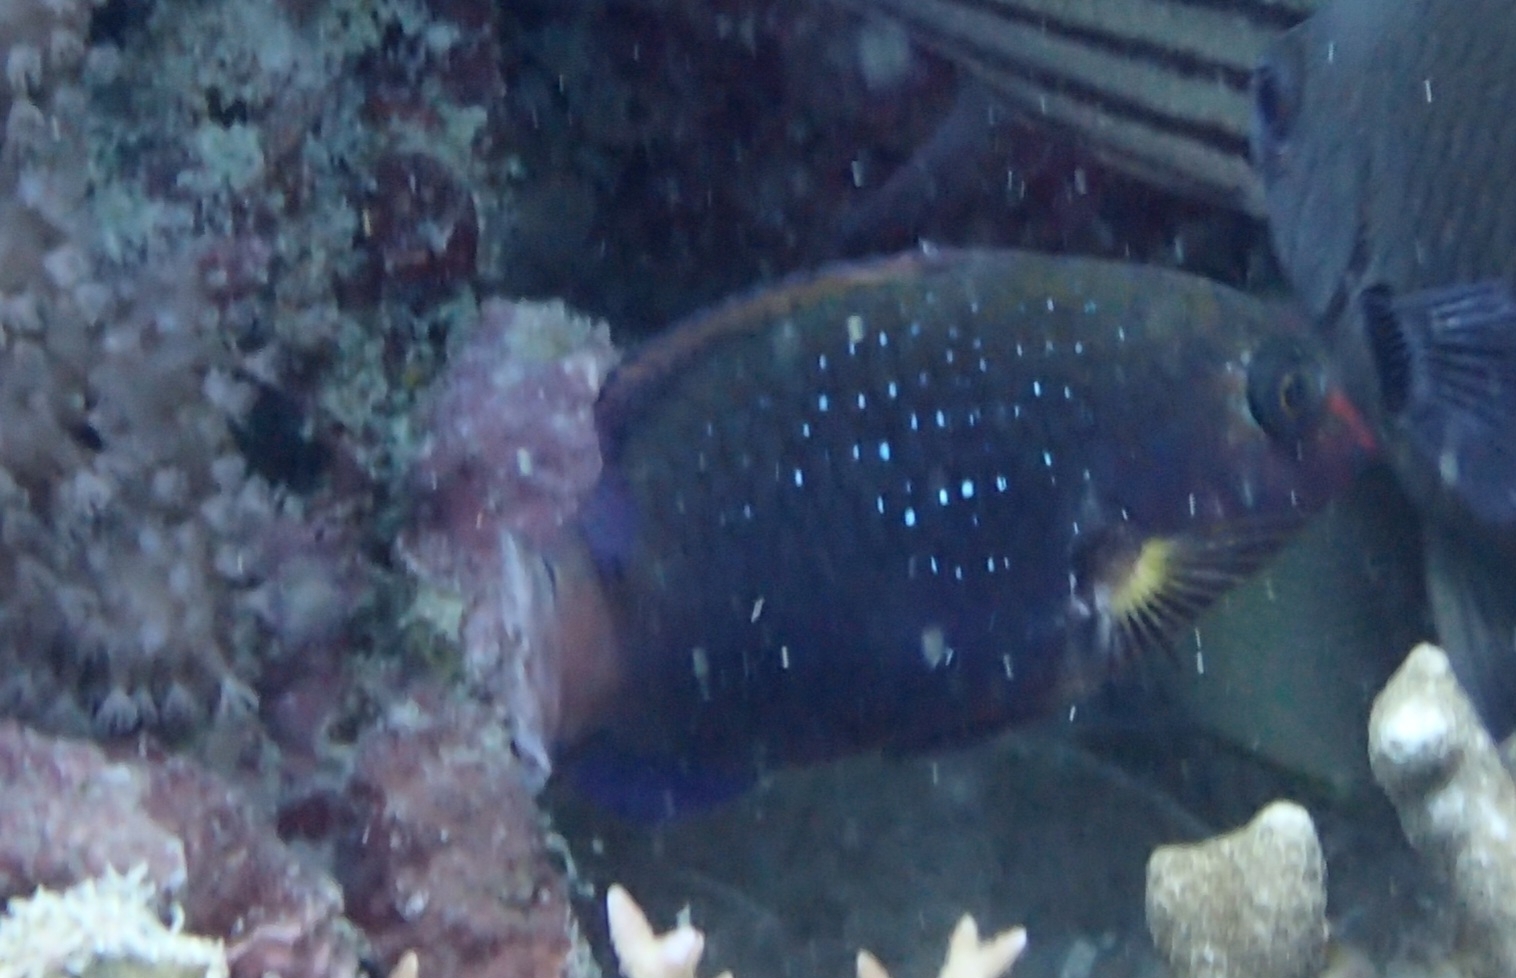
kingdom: Animalia
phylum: Chordata
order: Perciformes
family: Scaridae
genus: Scarus
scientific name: Scarus niger
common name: Dusky parrotfish
